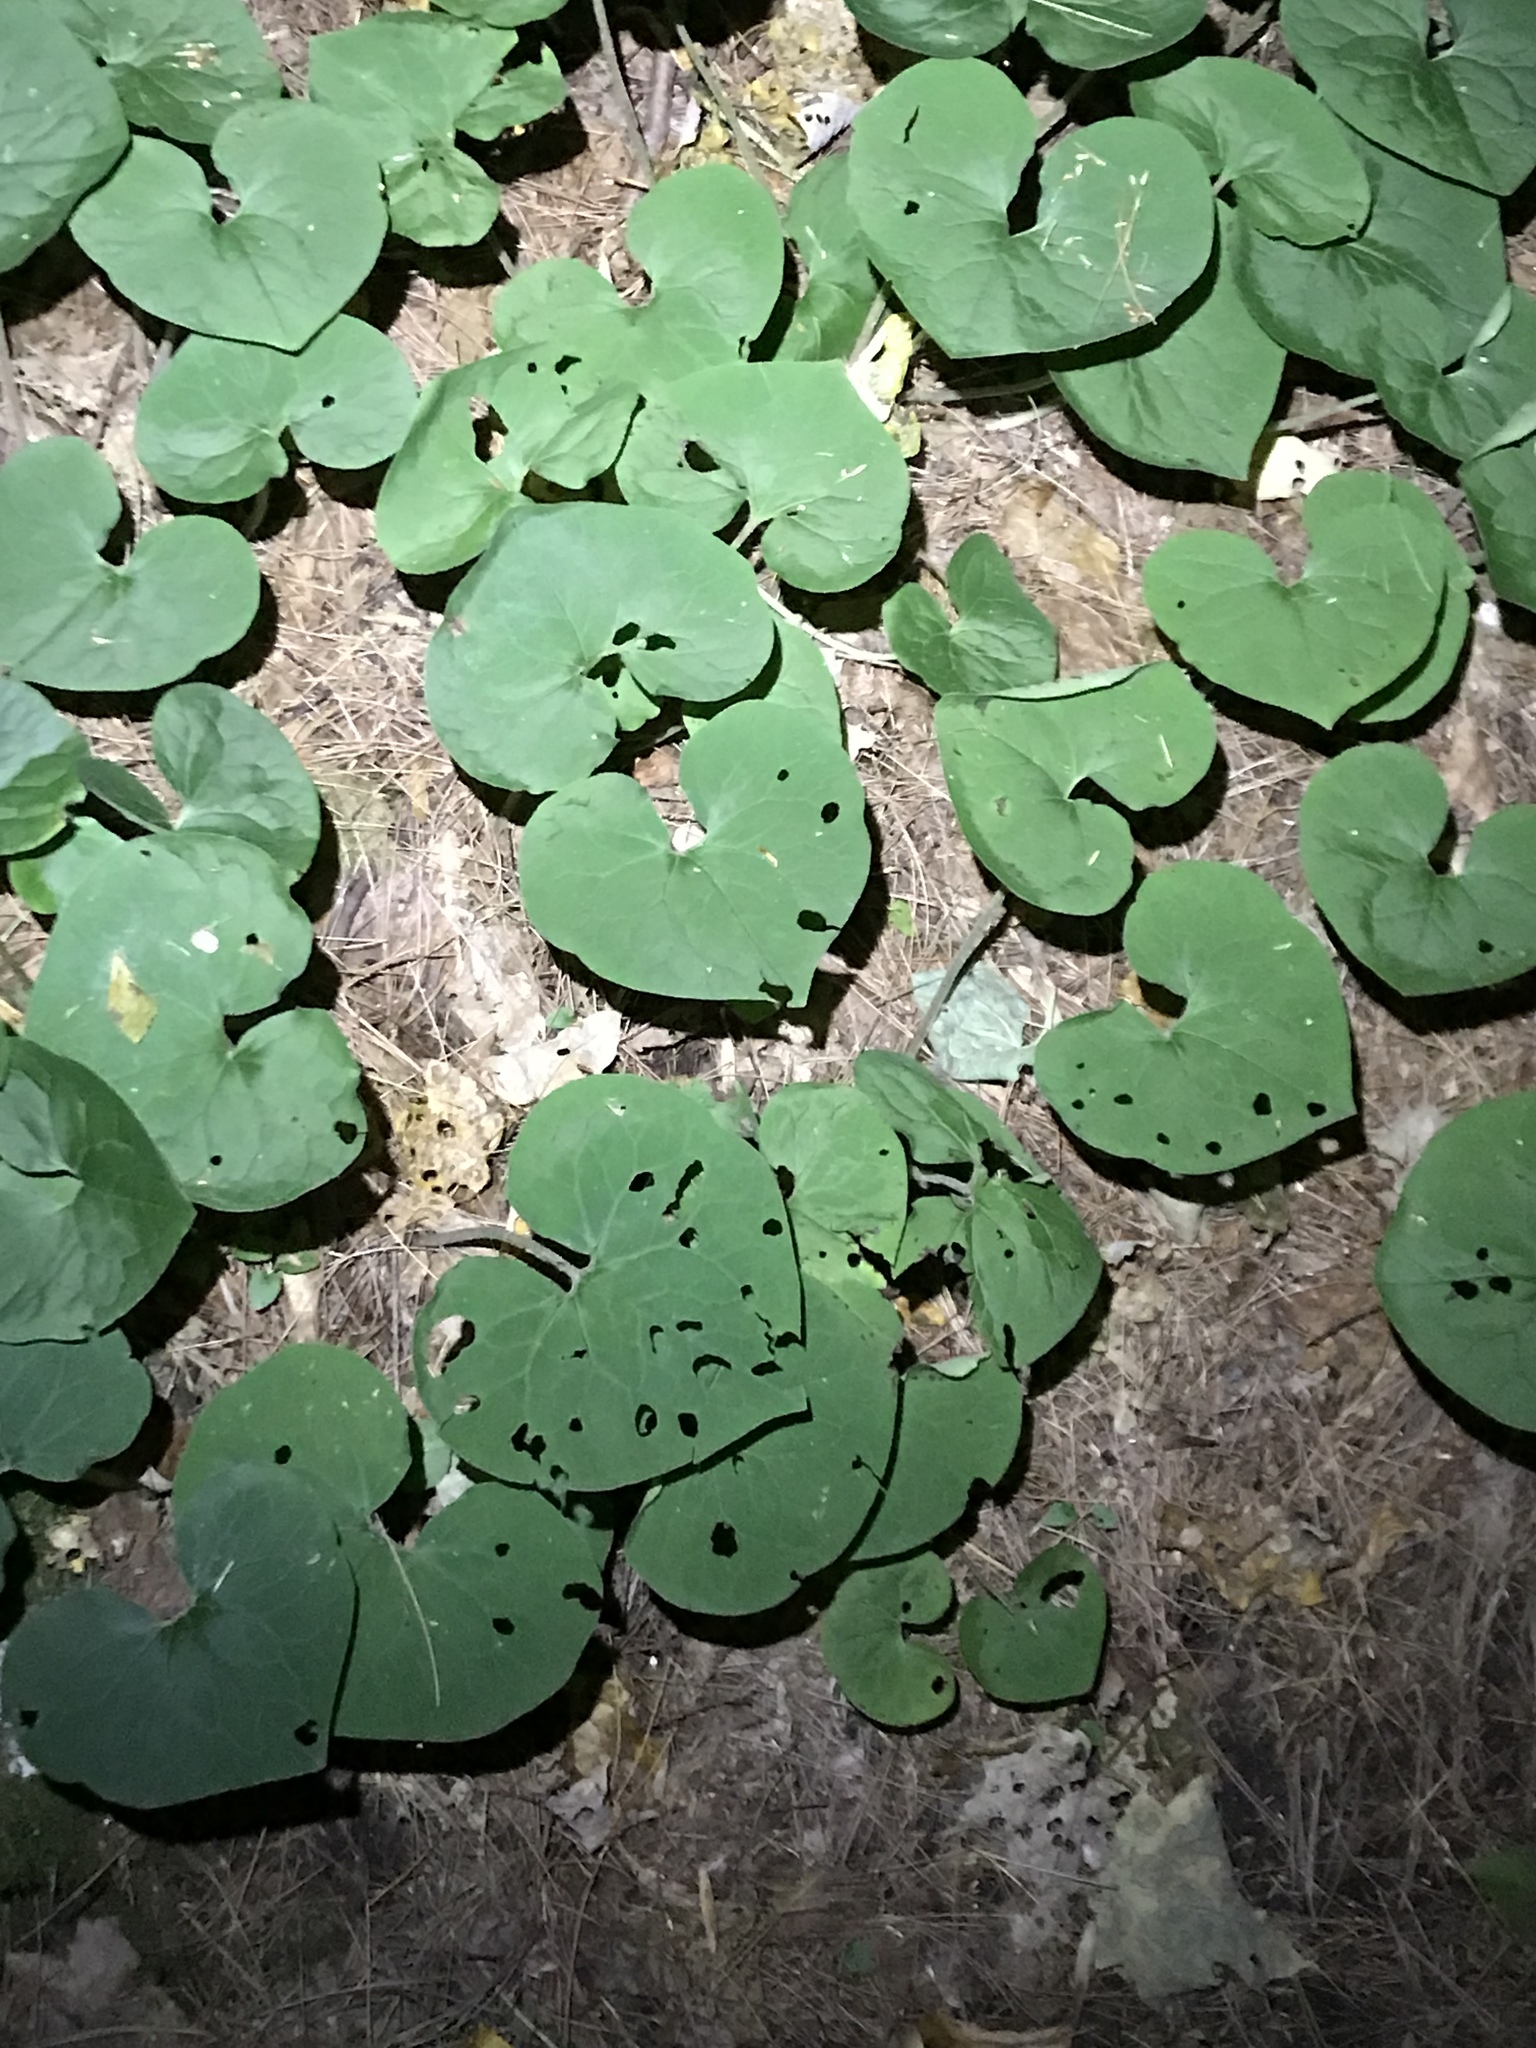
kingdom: Plantae
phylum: Tracheophyta
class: Magnoliopsida
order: Piperales
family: Aristolochiaceae
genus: Asarum
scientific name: Asarum canadense
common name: Wild ginger
